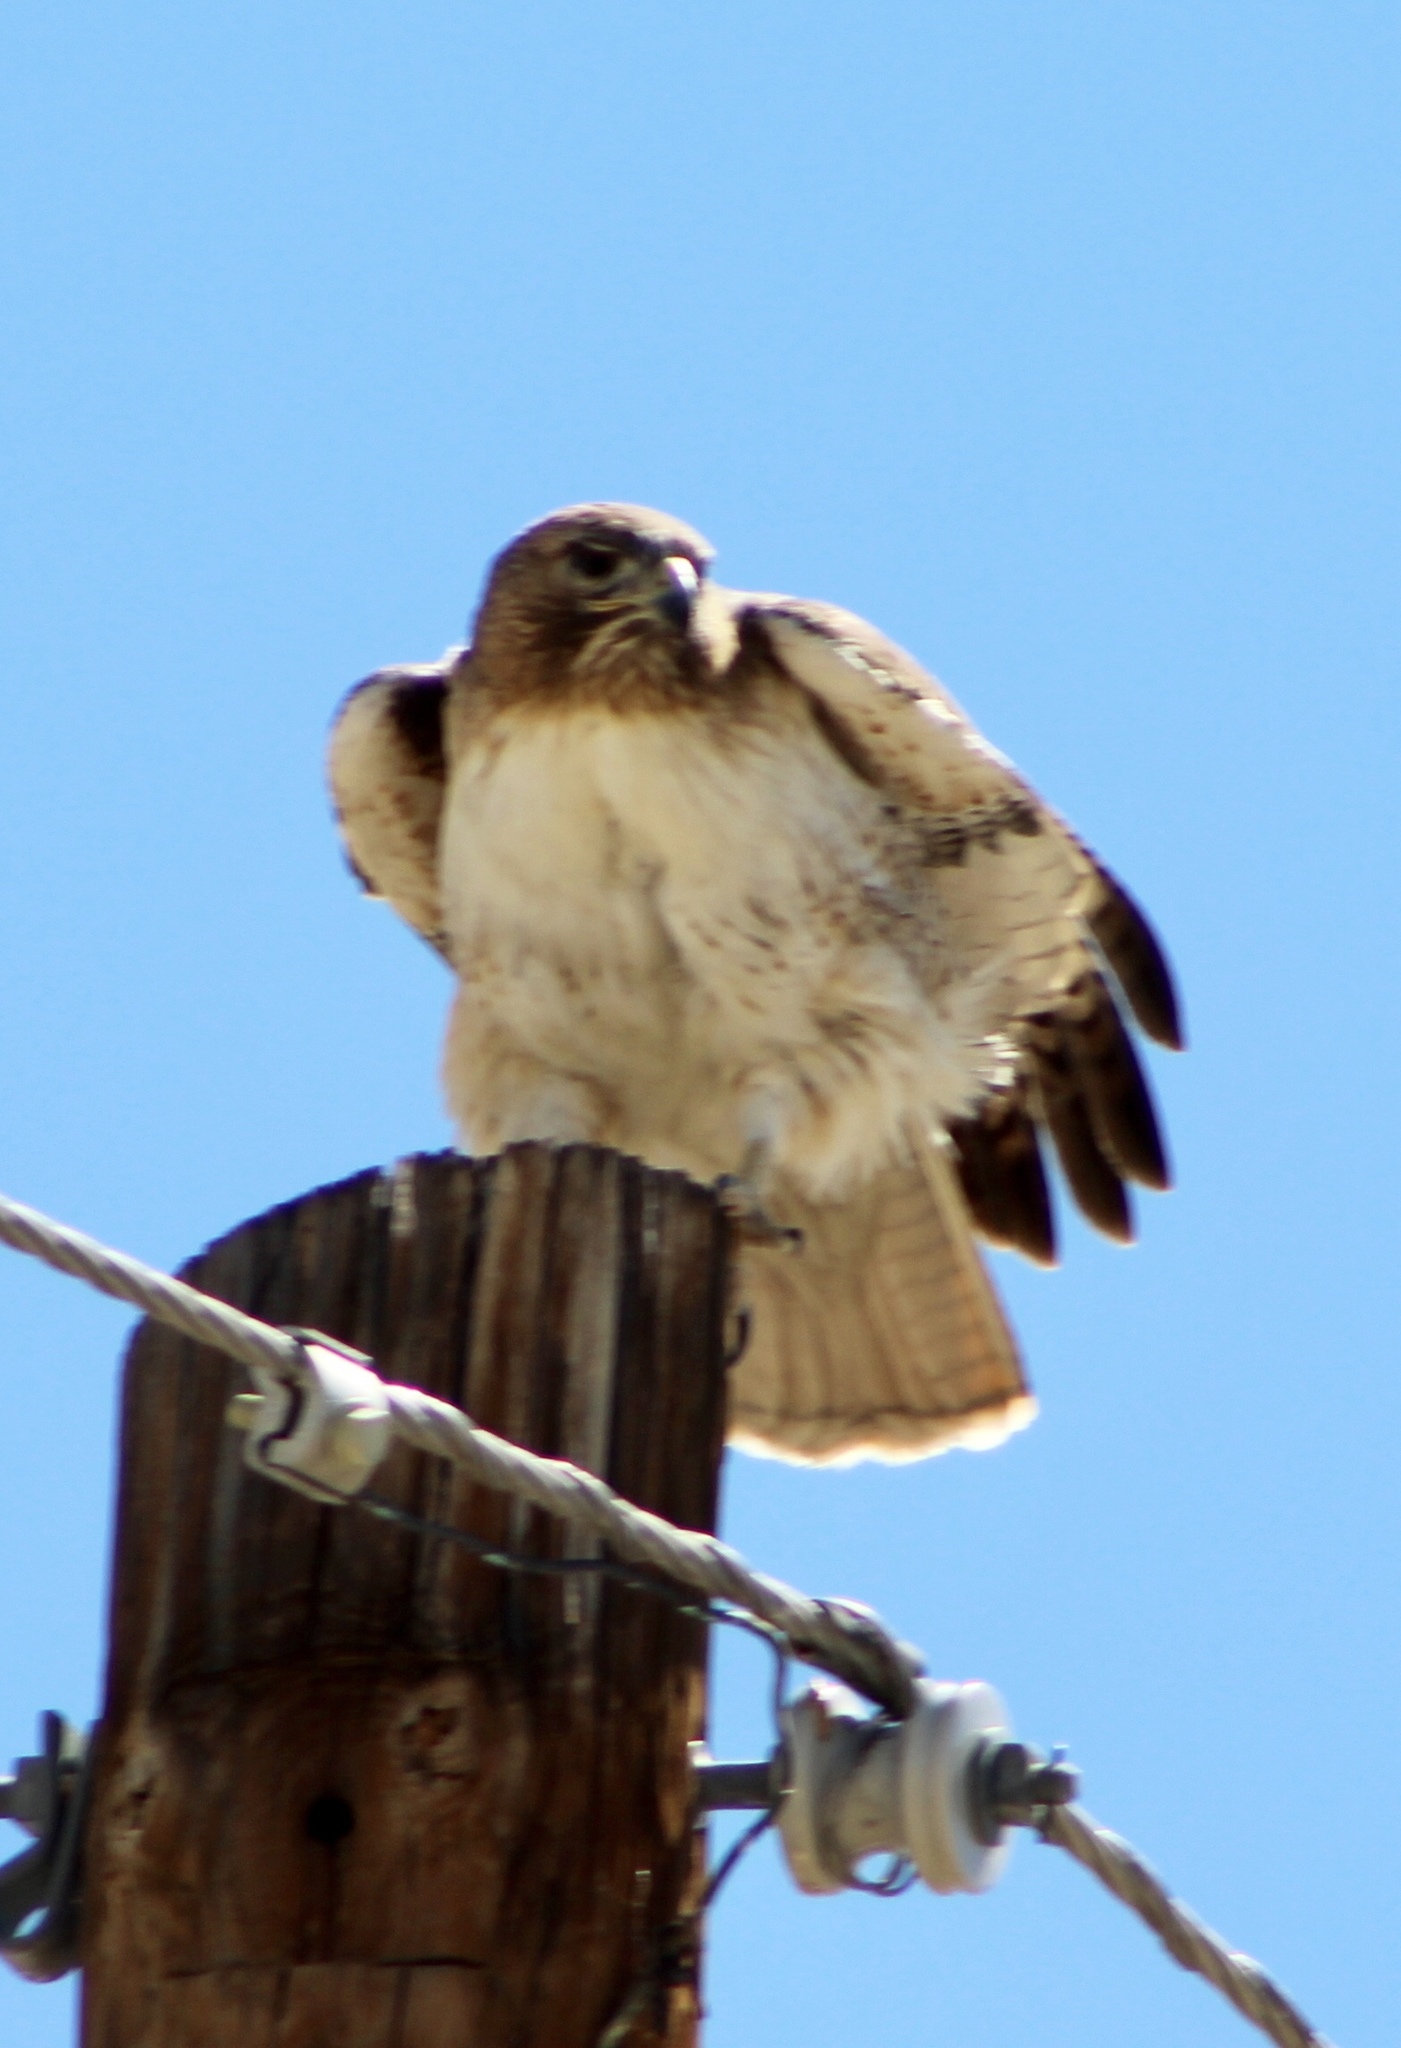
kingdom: Animalia
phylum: Chordata
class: Aves
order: Accipitriformes
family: Accipitridae
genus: Buteo
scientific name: Buteo jamaicensis
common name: Red-tailed hawk
